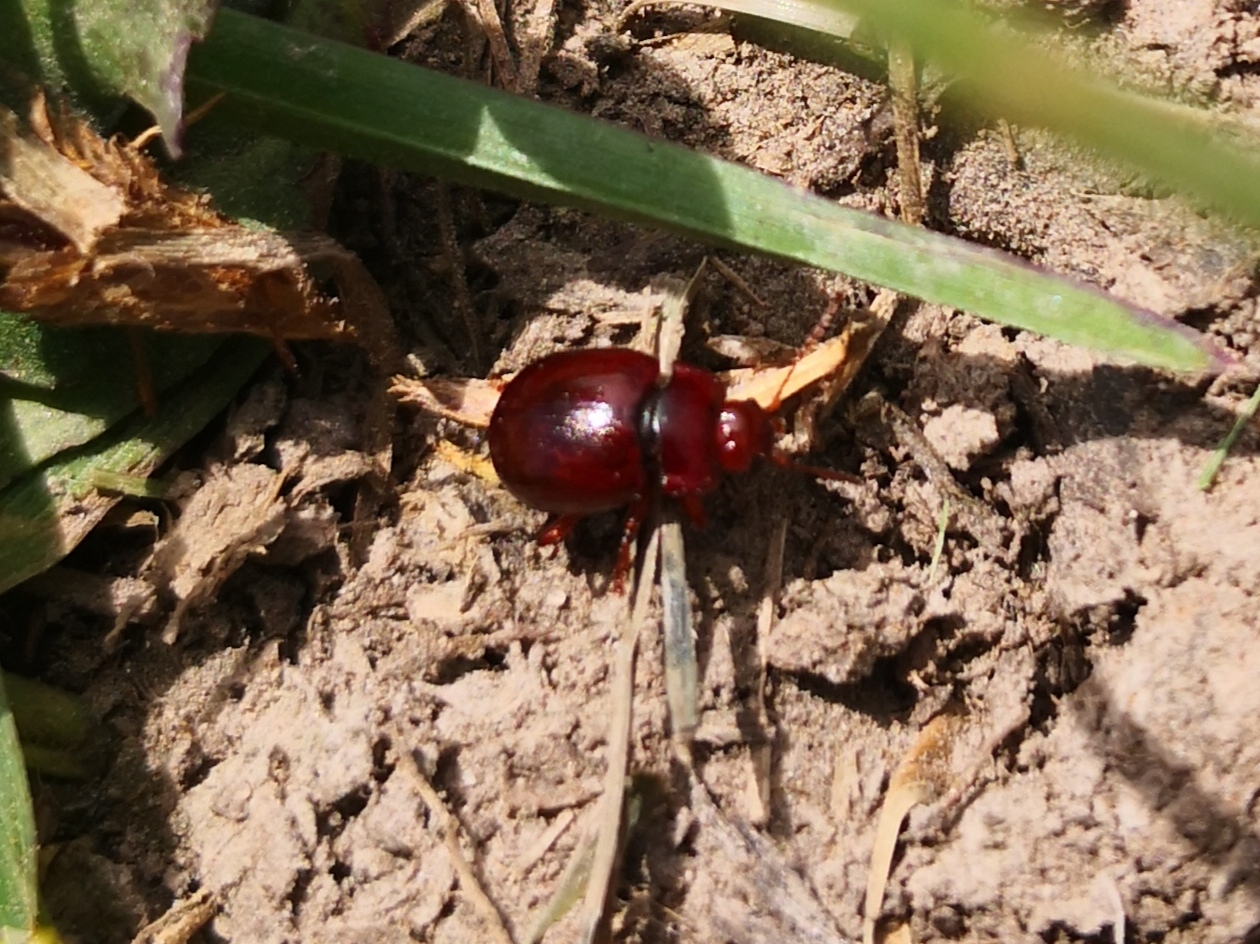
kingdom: Animalia
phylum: Arthropoda
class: Insecta
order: Coleoptera
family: Chrysomelidae
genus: Chrysolina
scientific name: Chrysolina staphylaea
